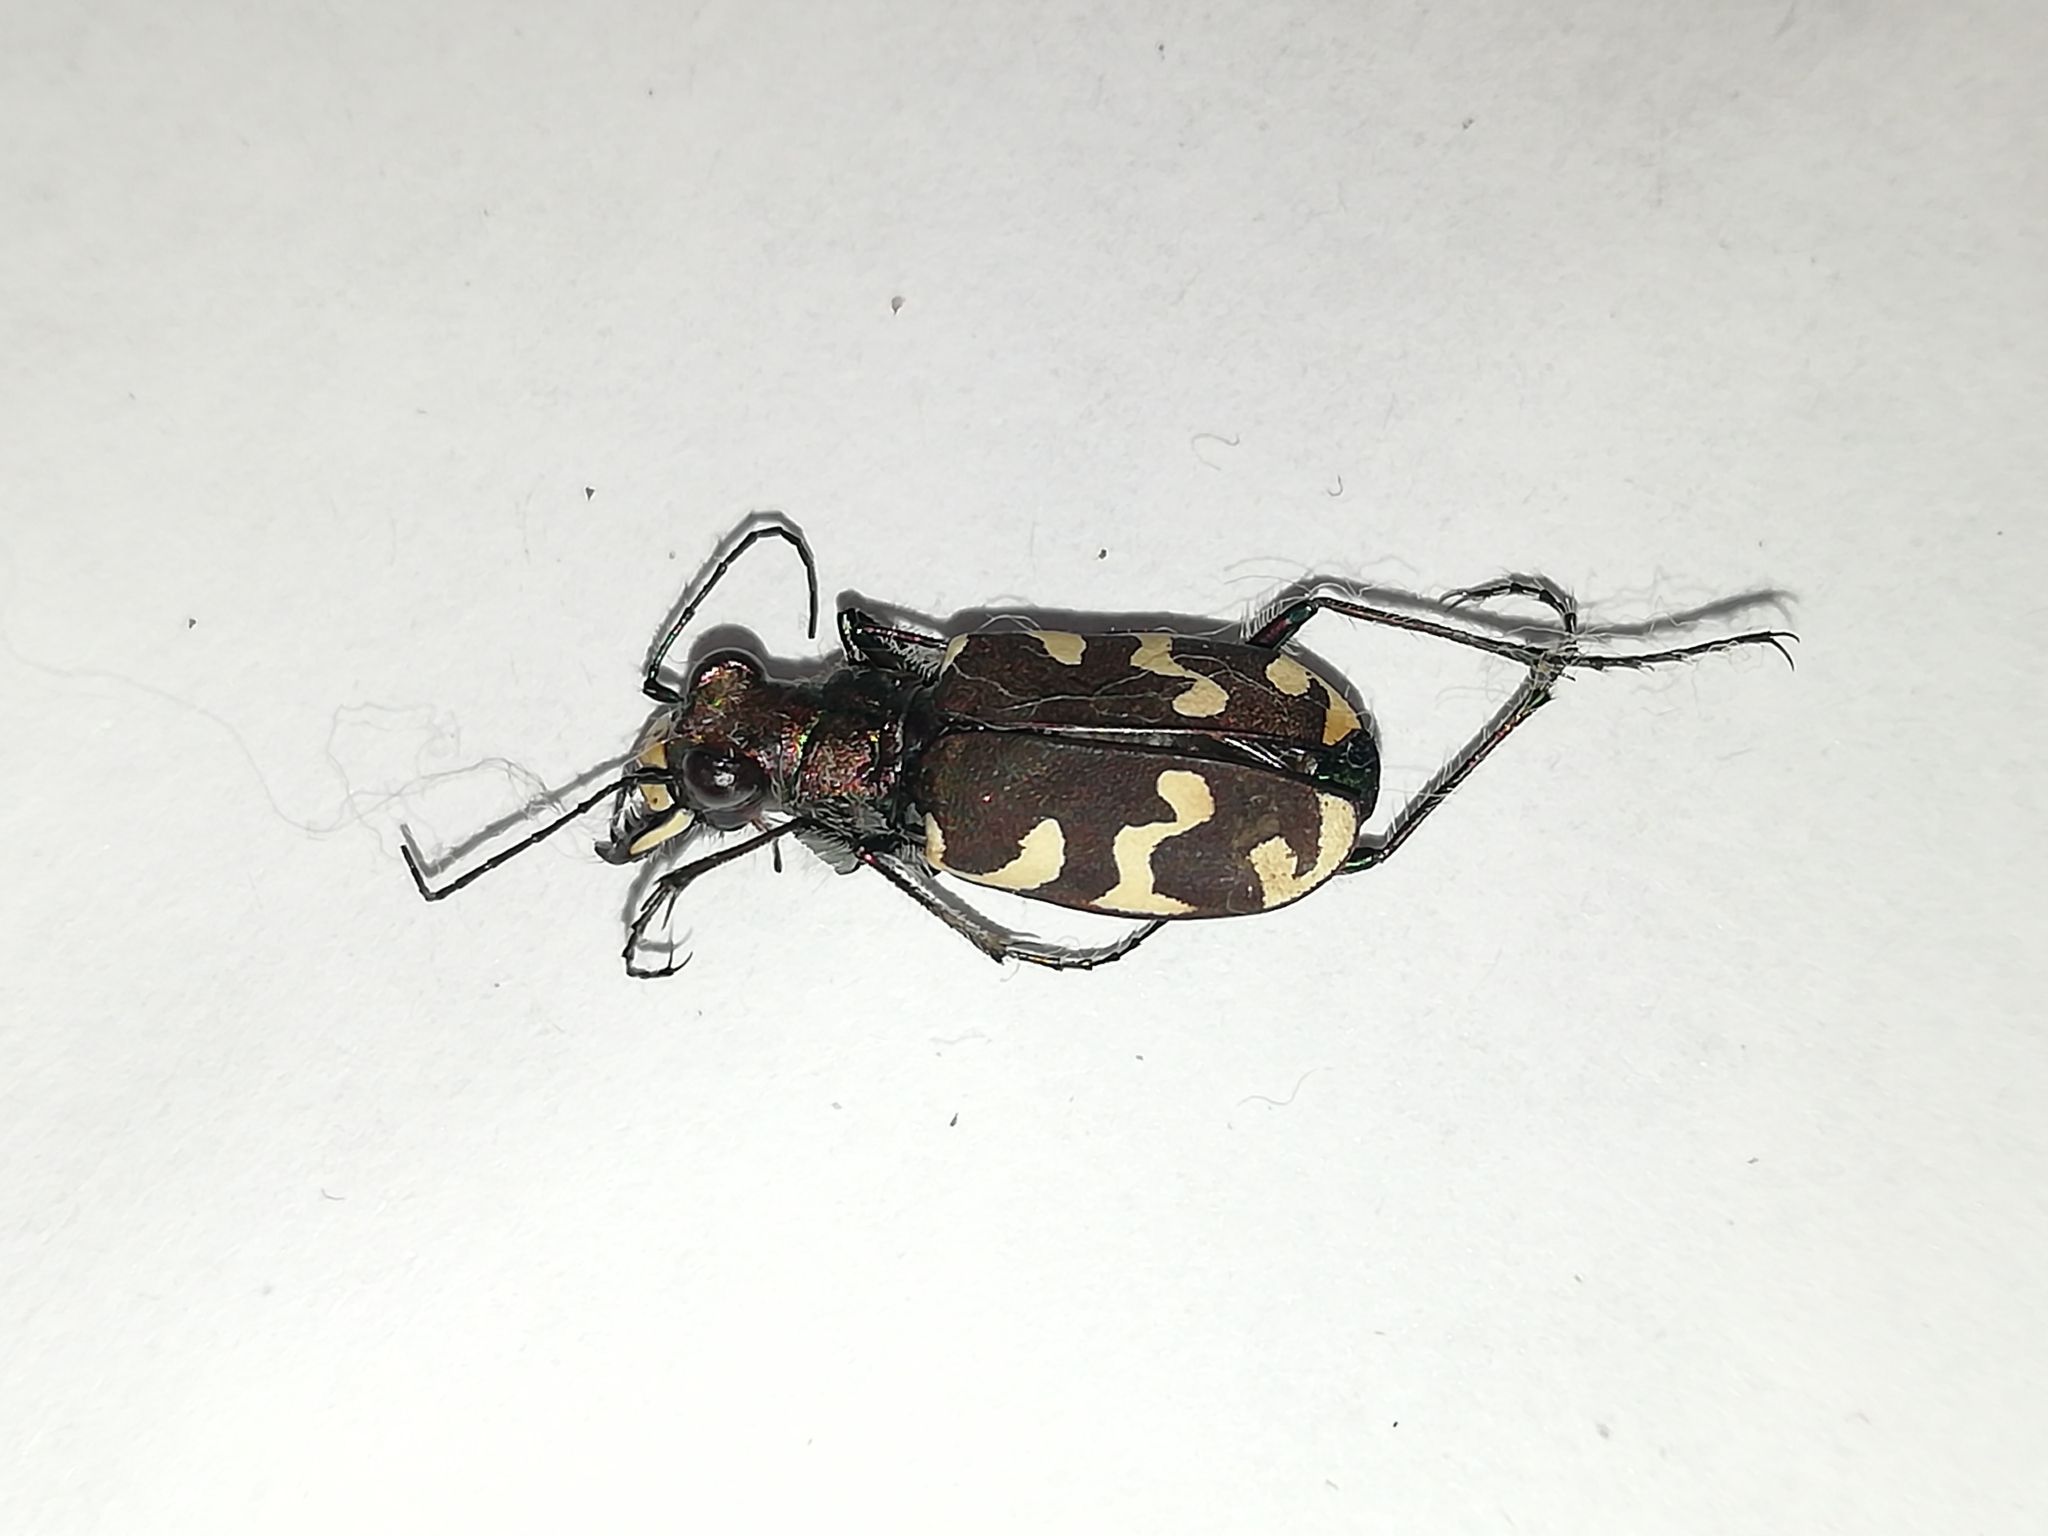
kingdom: Animalia
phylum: Arthropoda
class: Insecta
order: Coleoptera
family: Carabidae
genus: Cicindela
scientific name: Cicindela hybrida
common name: Northern dune tiger beetle
